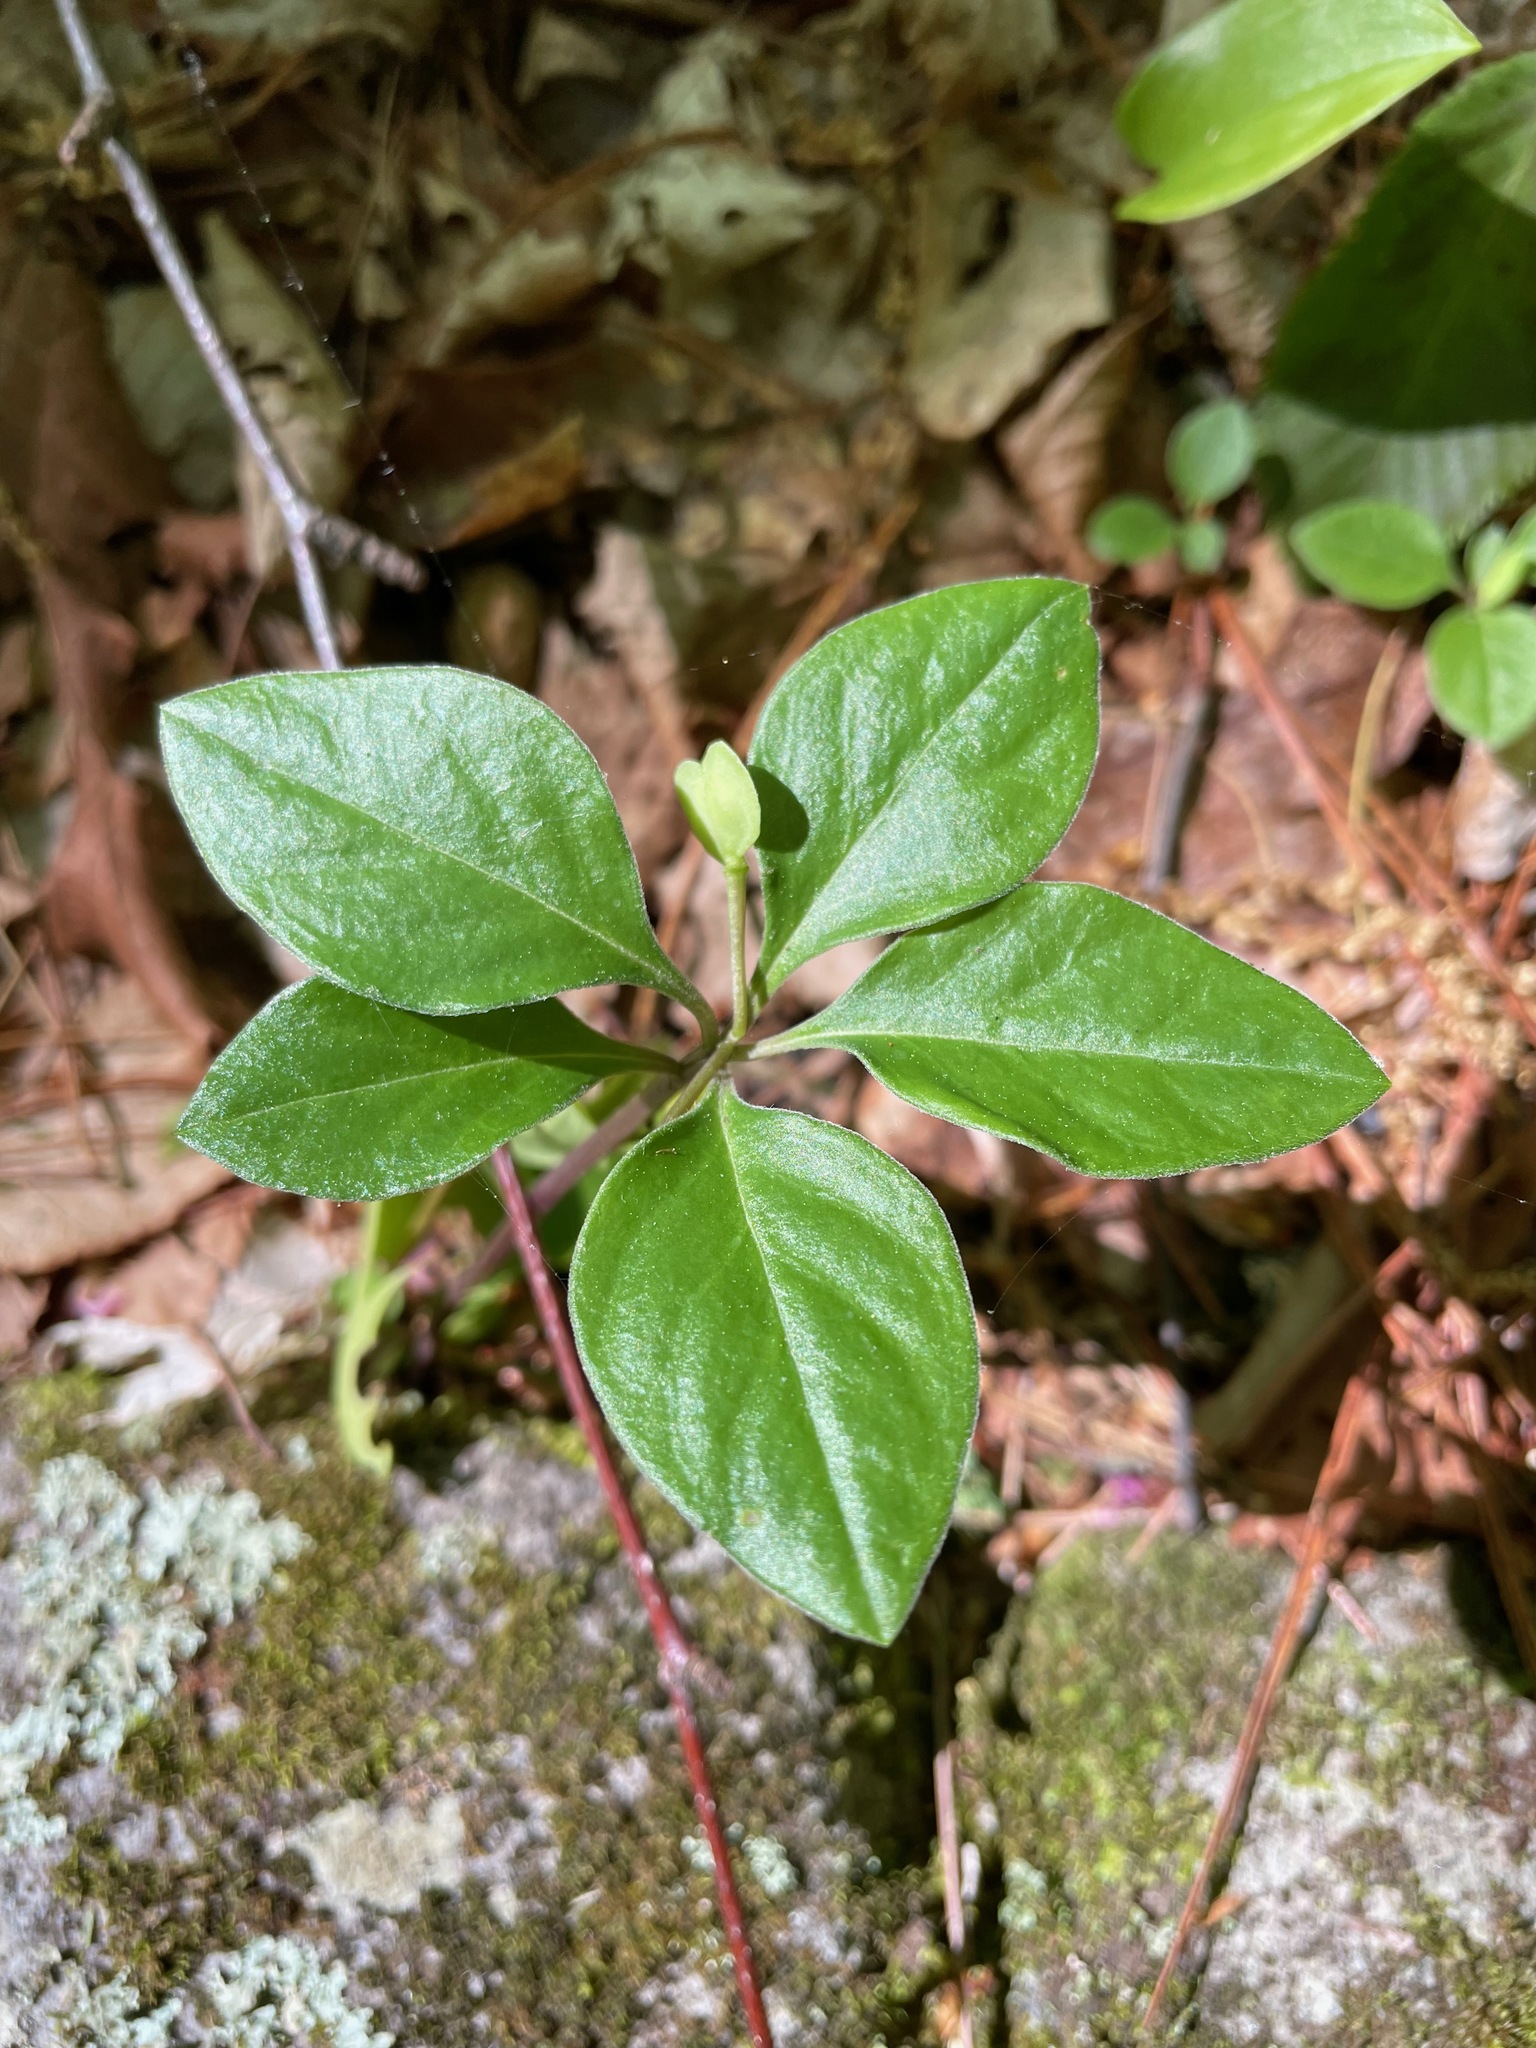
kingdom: Plantae
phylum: Tracheophyta
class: Magnoliopsida
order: Fabales
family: Polygalaceae
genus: Polygaloides
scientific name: Polygaloides paucifolia
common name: Bird-on-the-wing
